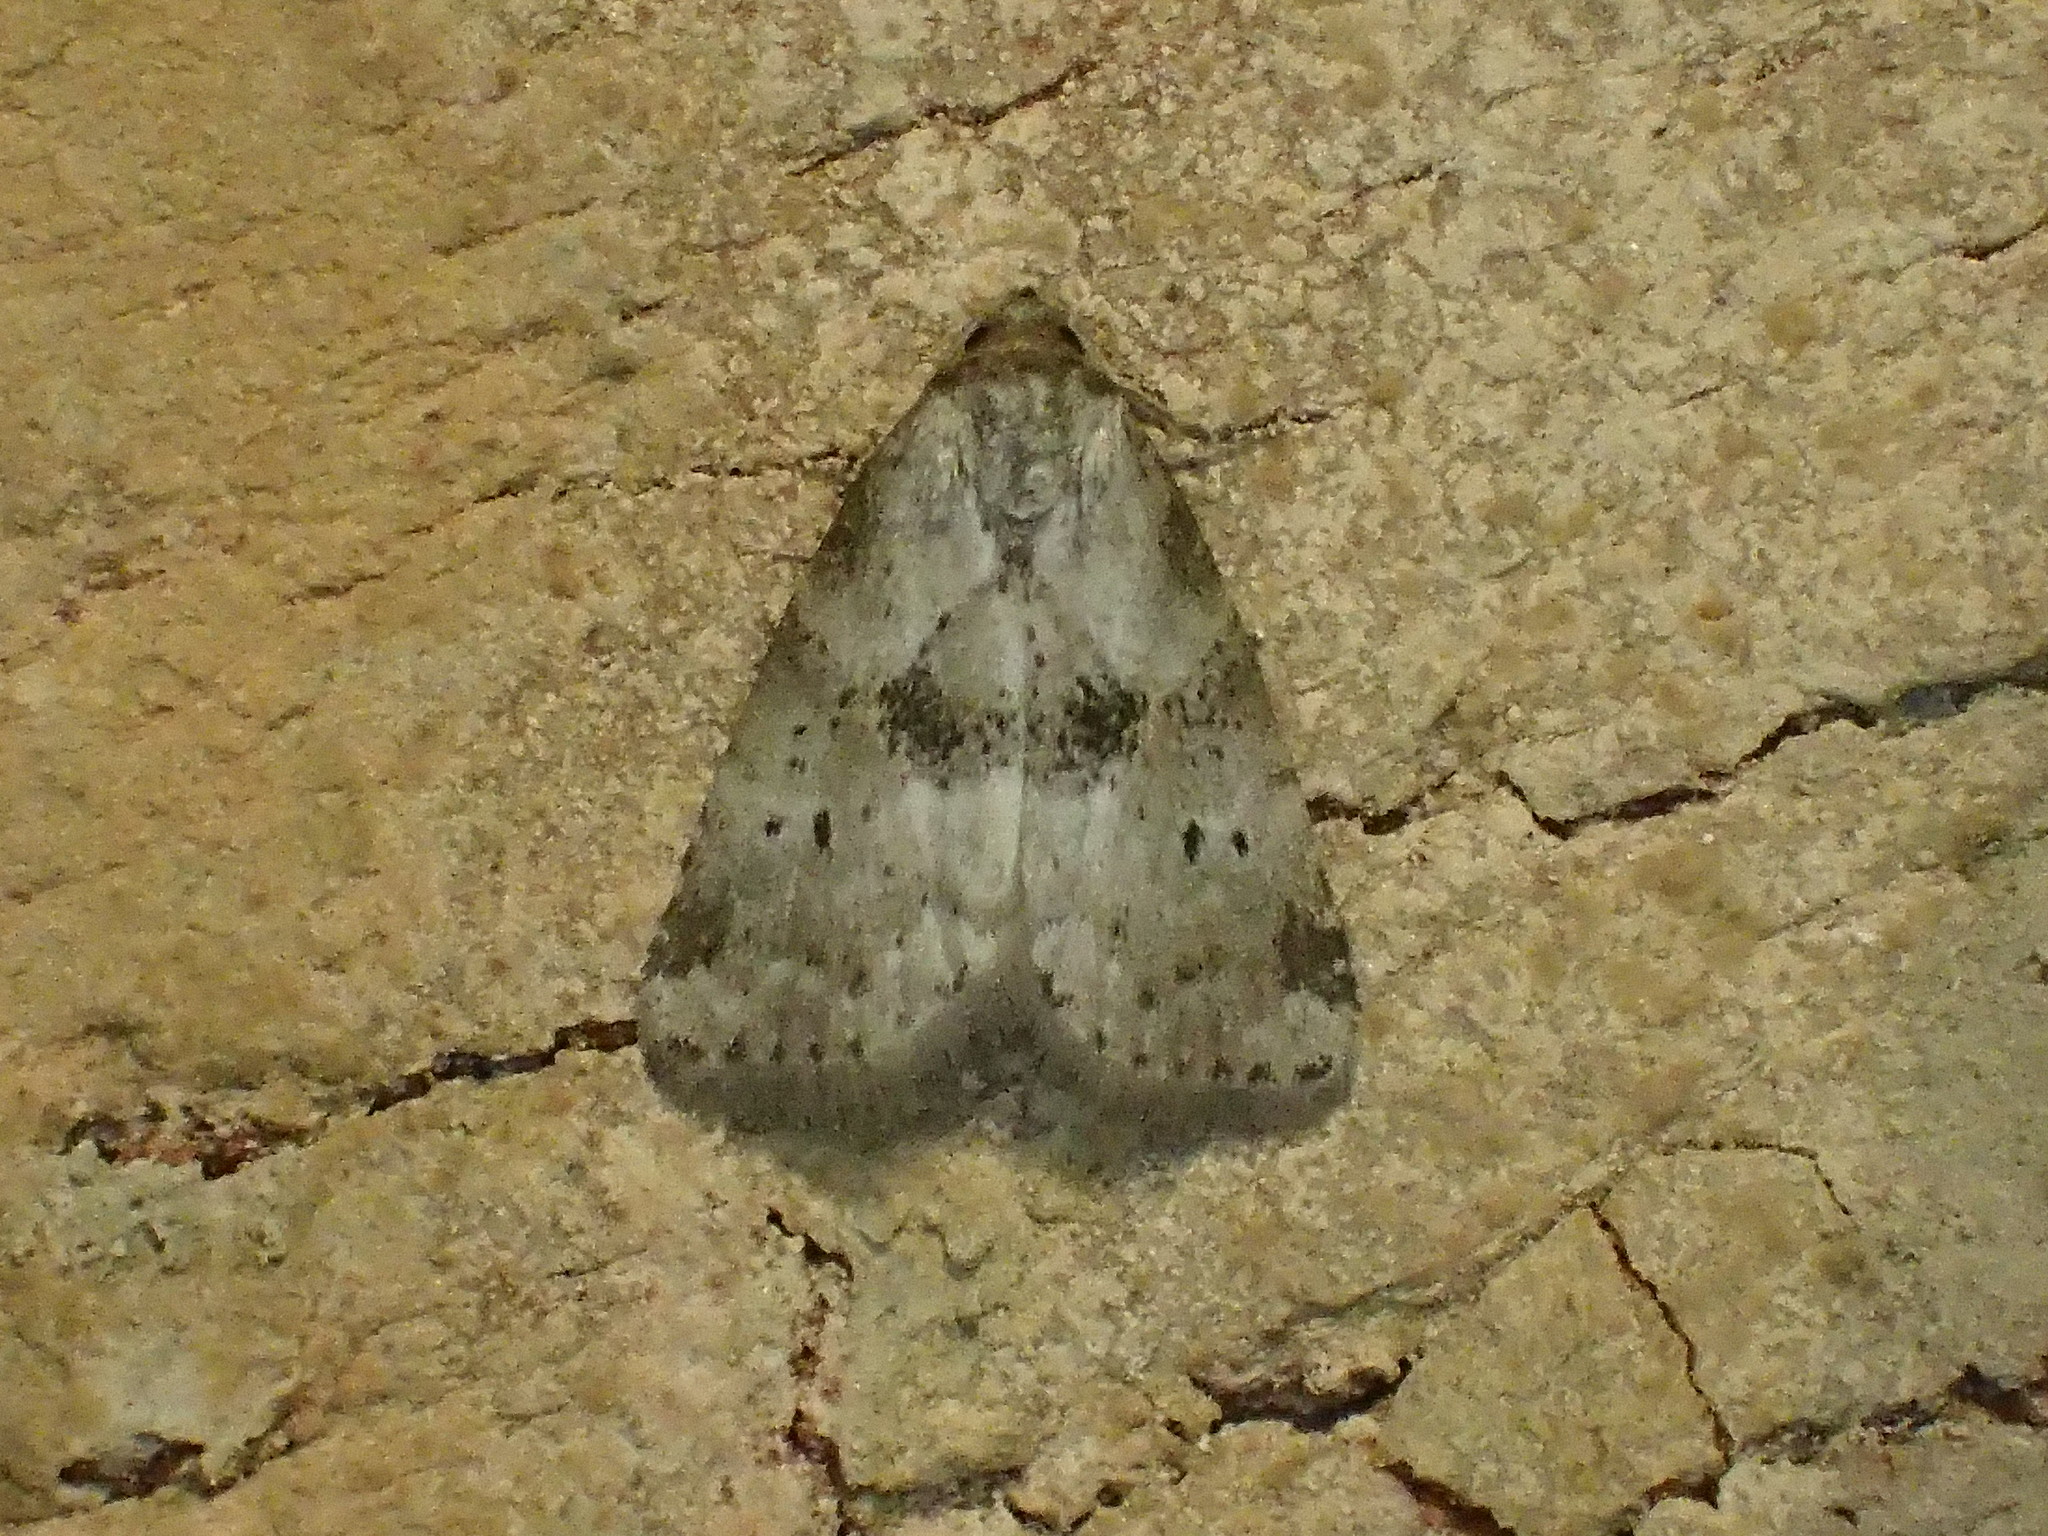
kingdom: Animalia
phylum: Arthropoda
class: Insecta
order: Lepidoptera
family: Erebidae
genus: Hyperstrotia
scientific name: Hyperstrotia secta
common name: Black-patched graylet
